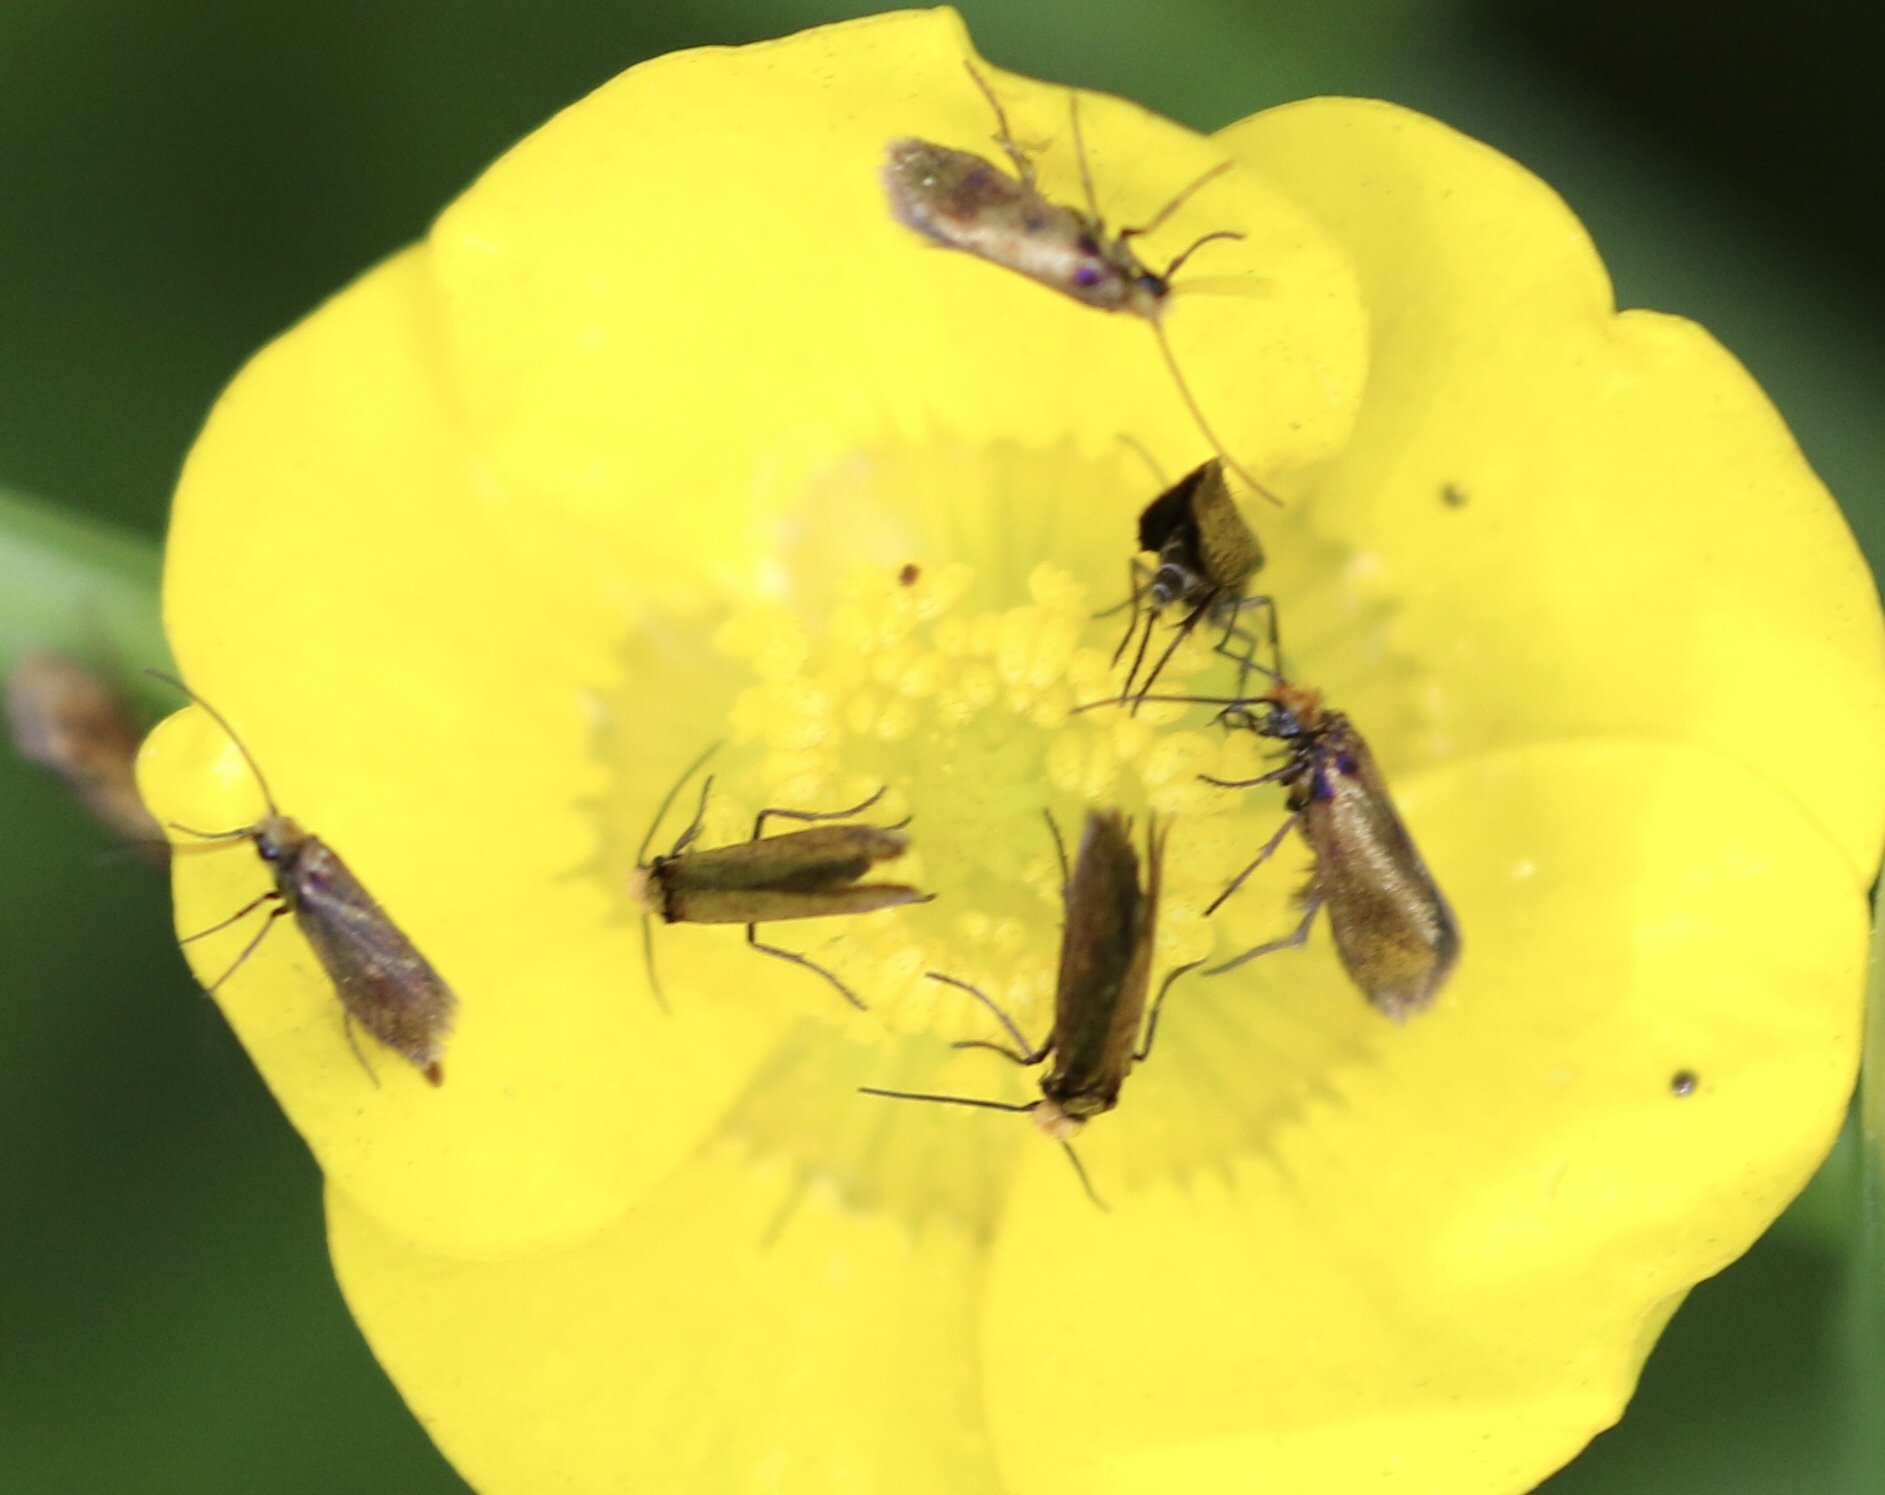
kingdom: Animalia
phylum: Arthropoda
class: Insecta
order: Lepidoptera
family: Micropterigidae
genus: Micropterix
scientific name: Micropterix calthella
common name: Plain gold
